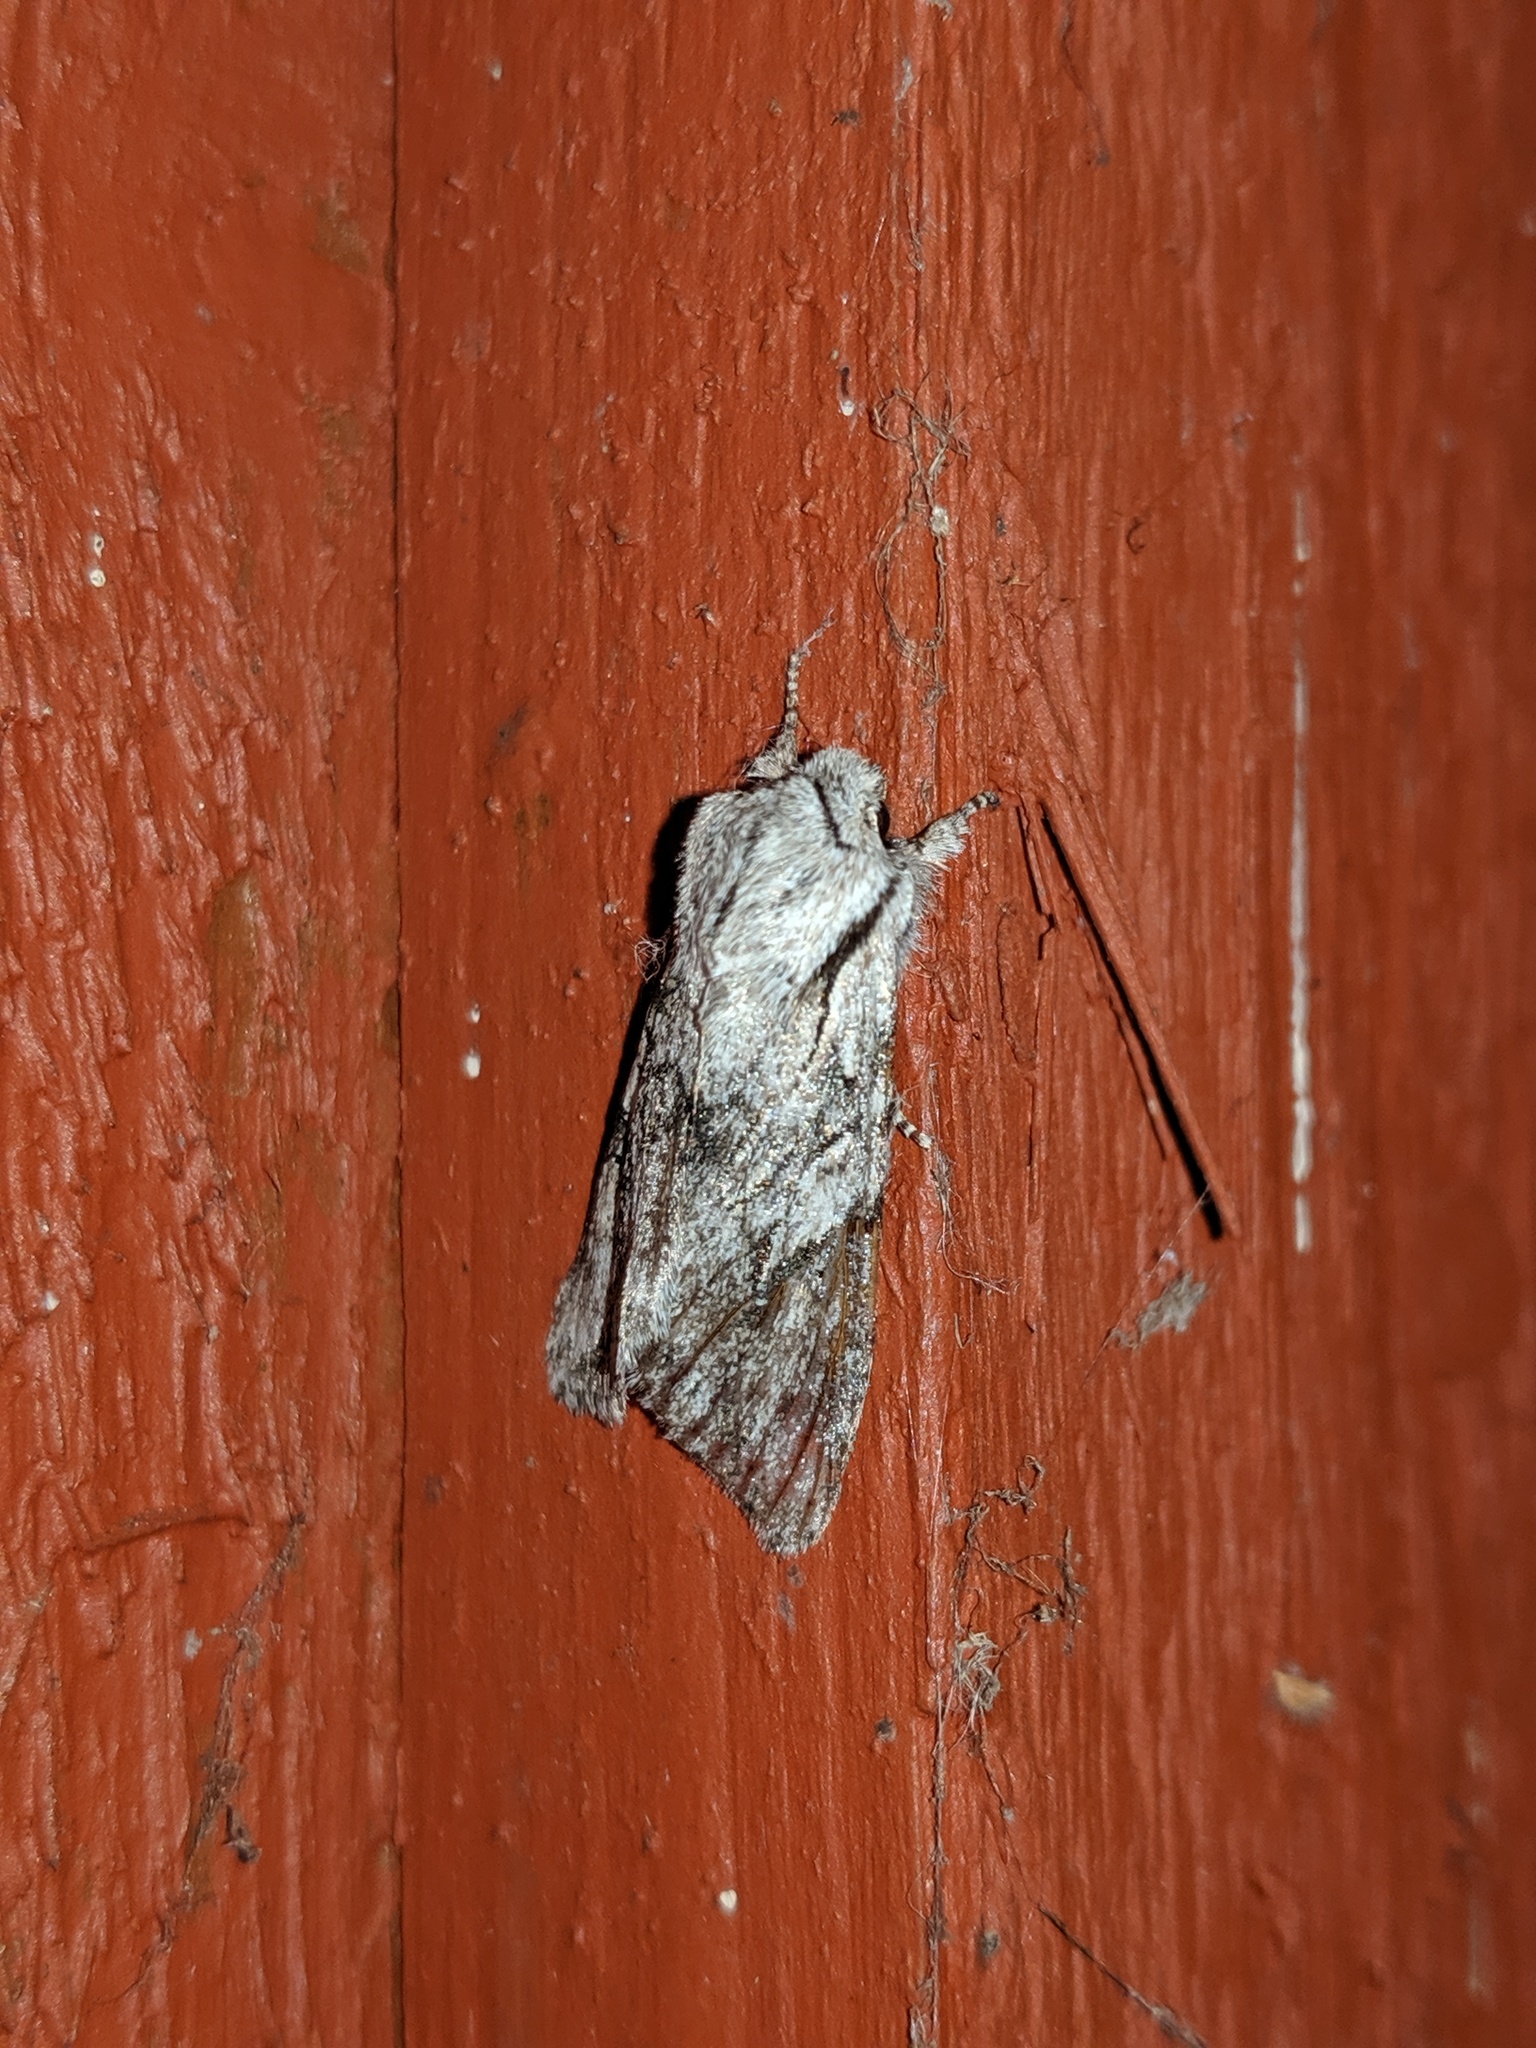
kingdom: Animalia
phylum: Arthropoda
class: Insecta
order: Lepidoptera
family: Noctuidae
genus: Egira
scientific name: Egira crucialis
